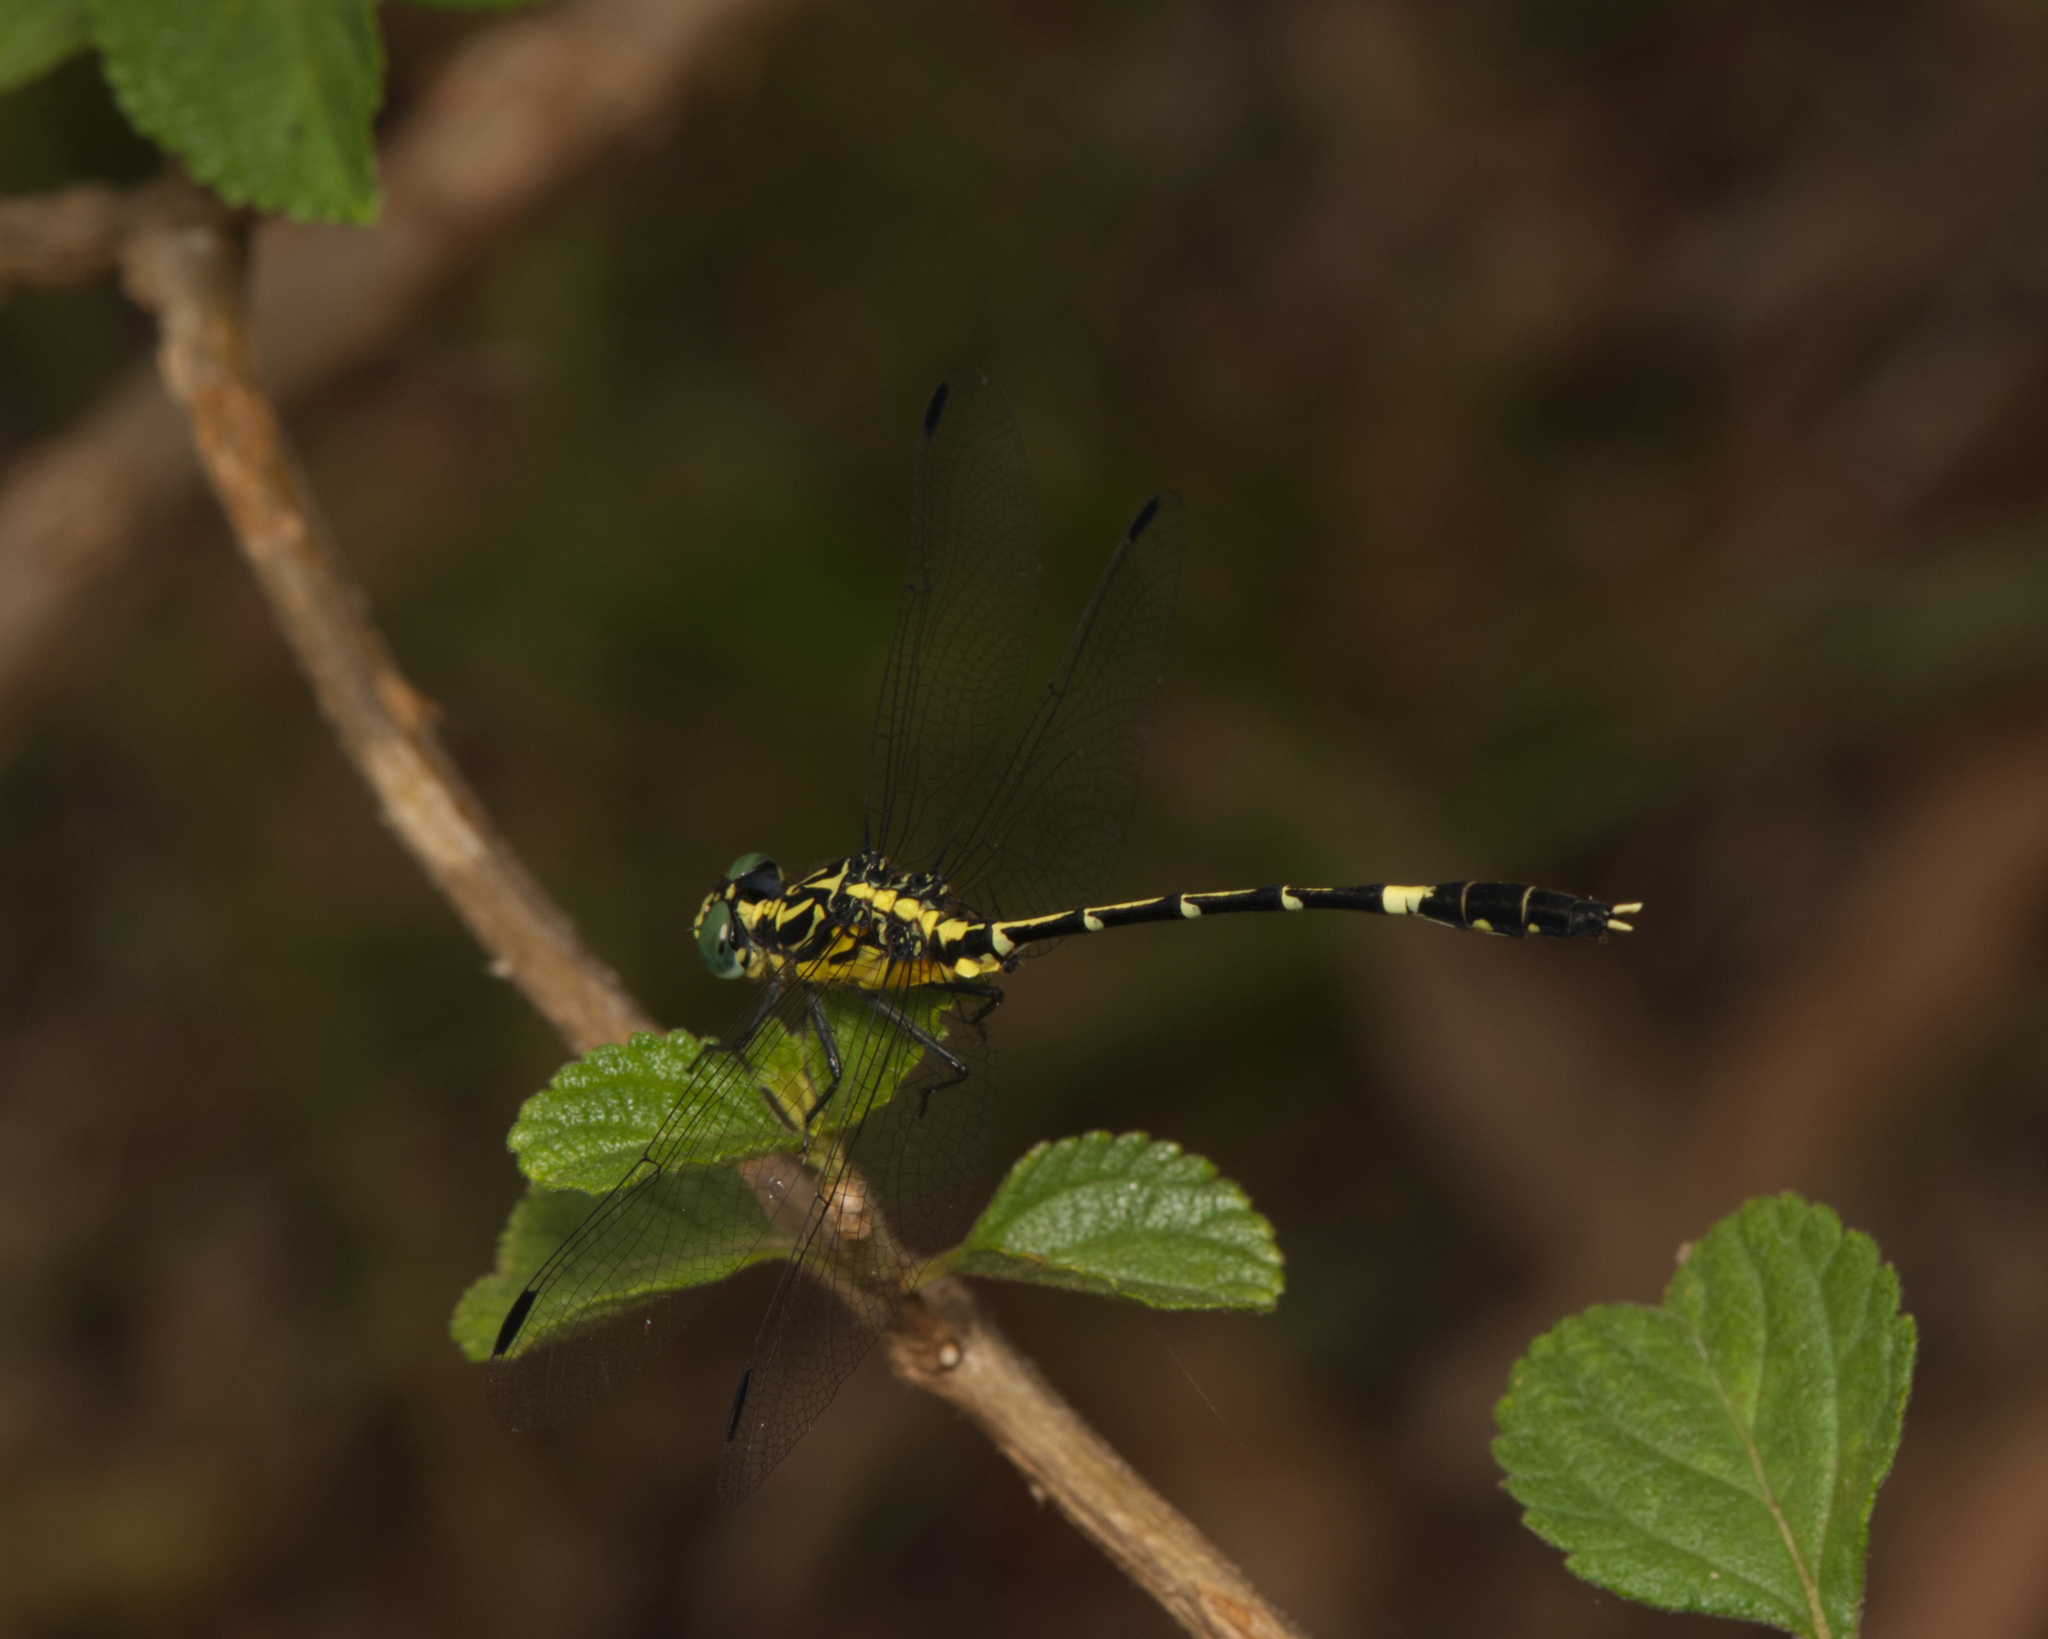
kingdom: Animalia
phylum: Arthropoda
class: Insecta
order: Odonata
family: Gomphidae
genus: Austrogomphus
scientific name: Austrogomphus amphiclitus
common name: Pale hunter
